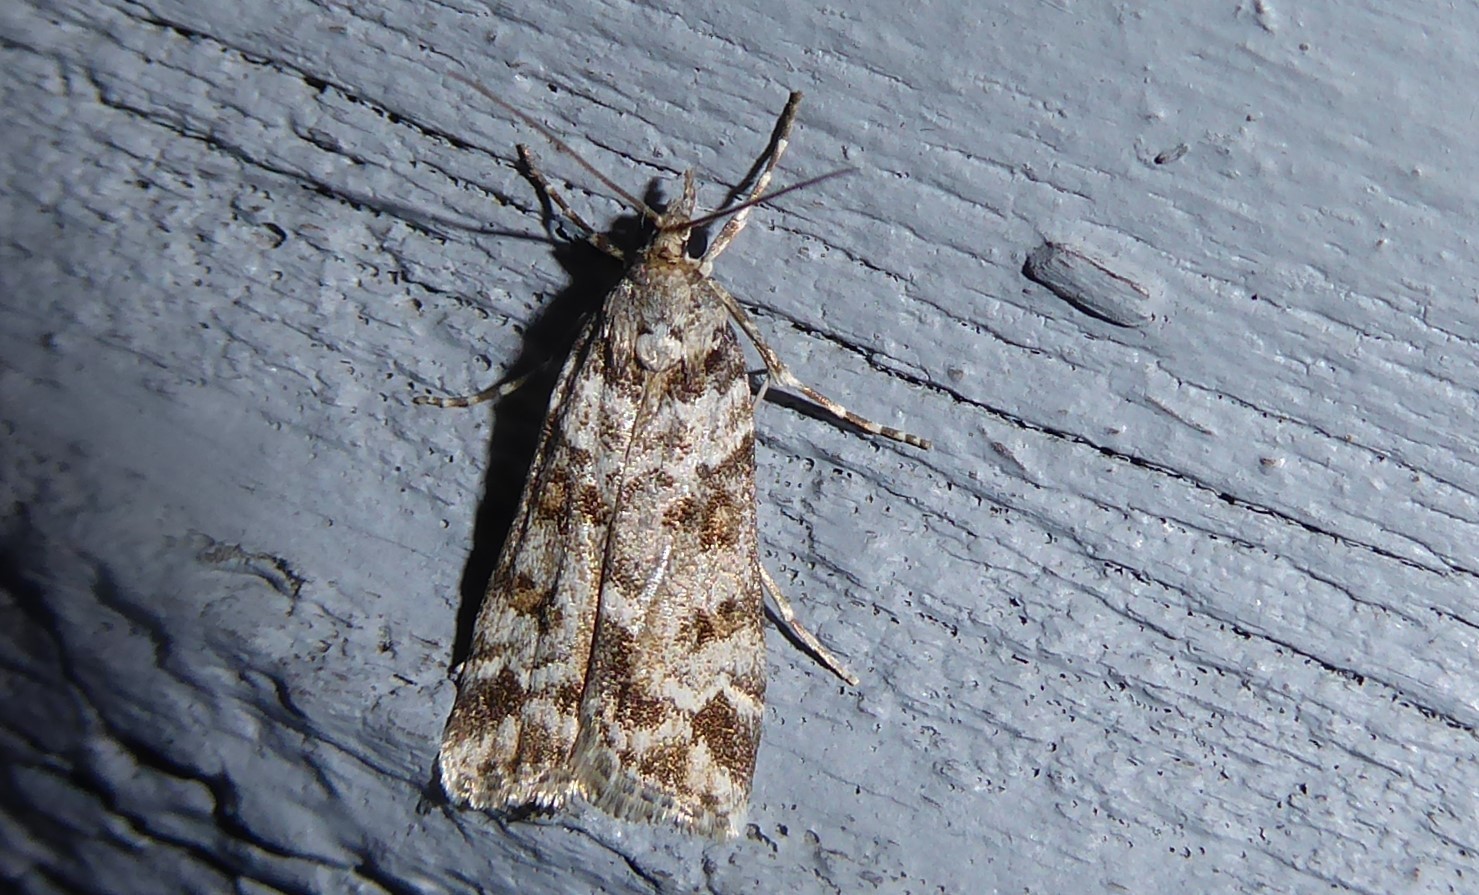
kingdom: Animalia
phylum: Arthropoda
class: Insecta
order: Lepidoptera
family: Crambidae
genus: Eudonia
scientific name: Eudonia diphtheralis
